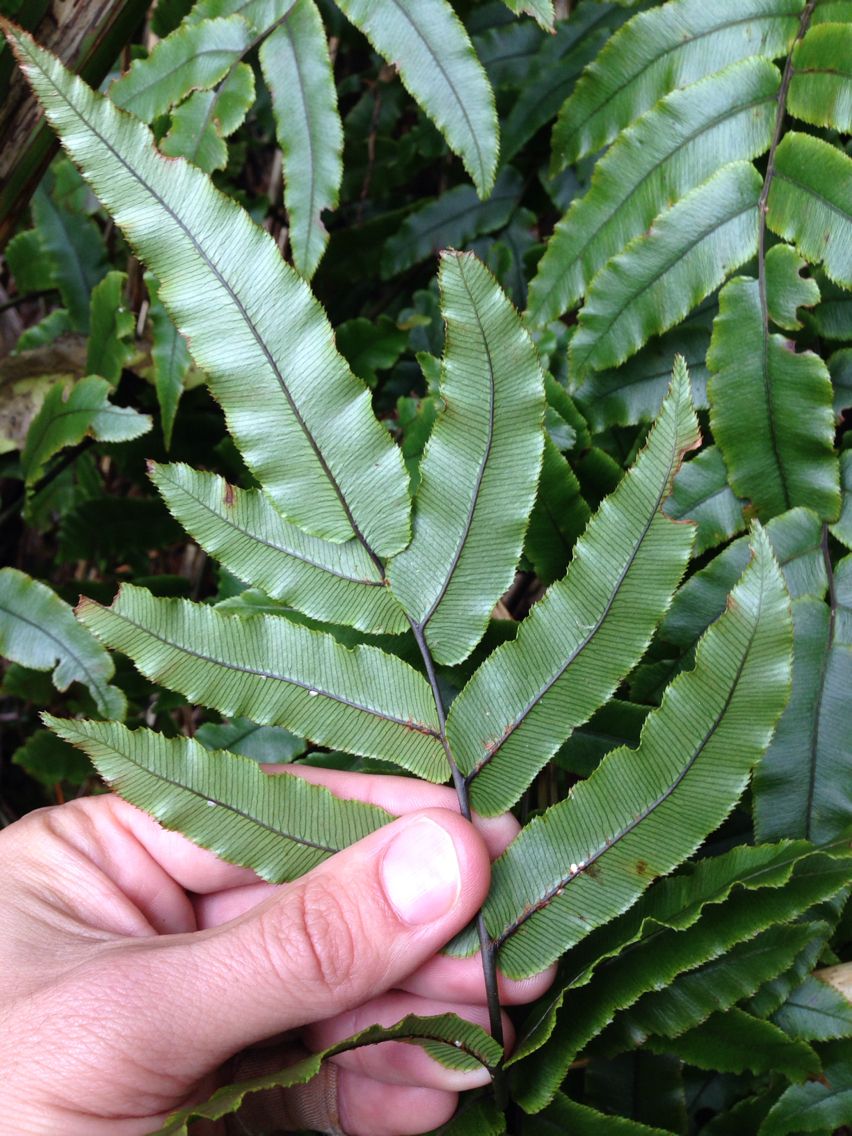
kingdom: Plantae
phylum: Tracheophyta
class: Polypodiopsida
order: Polypodiales
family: Blechnaceae
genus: Parablechnum
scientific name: Parablechnum procerum
